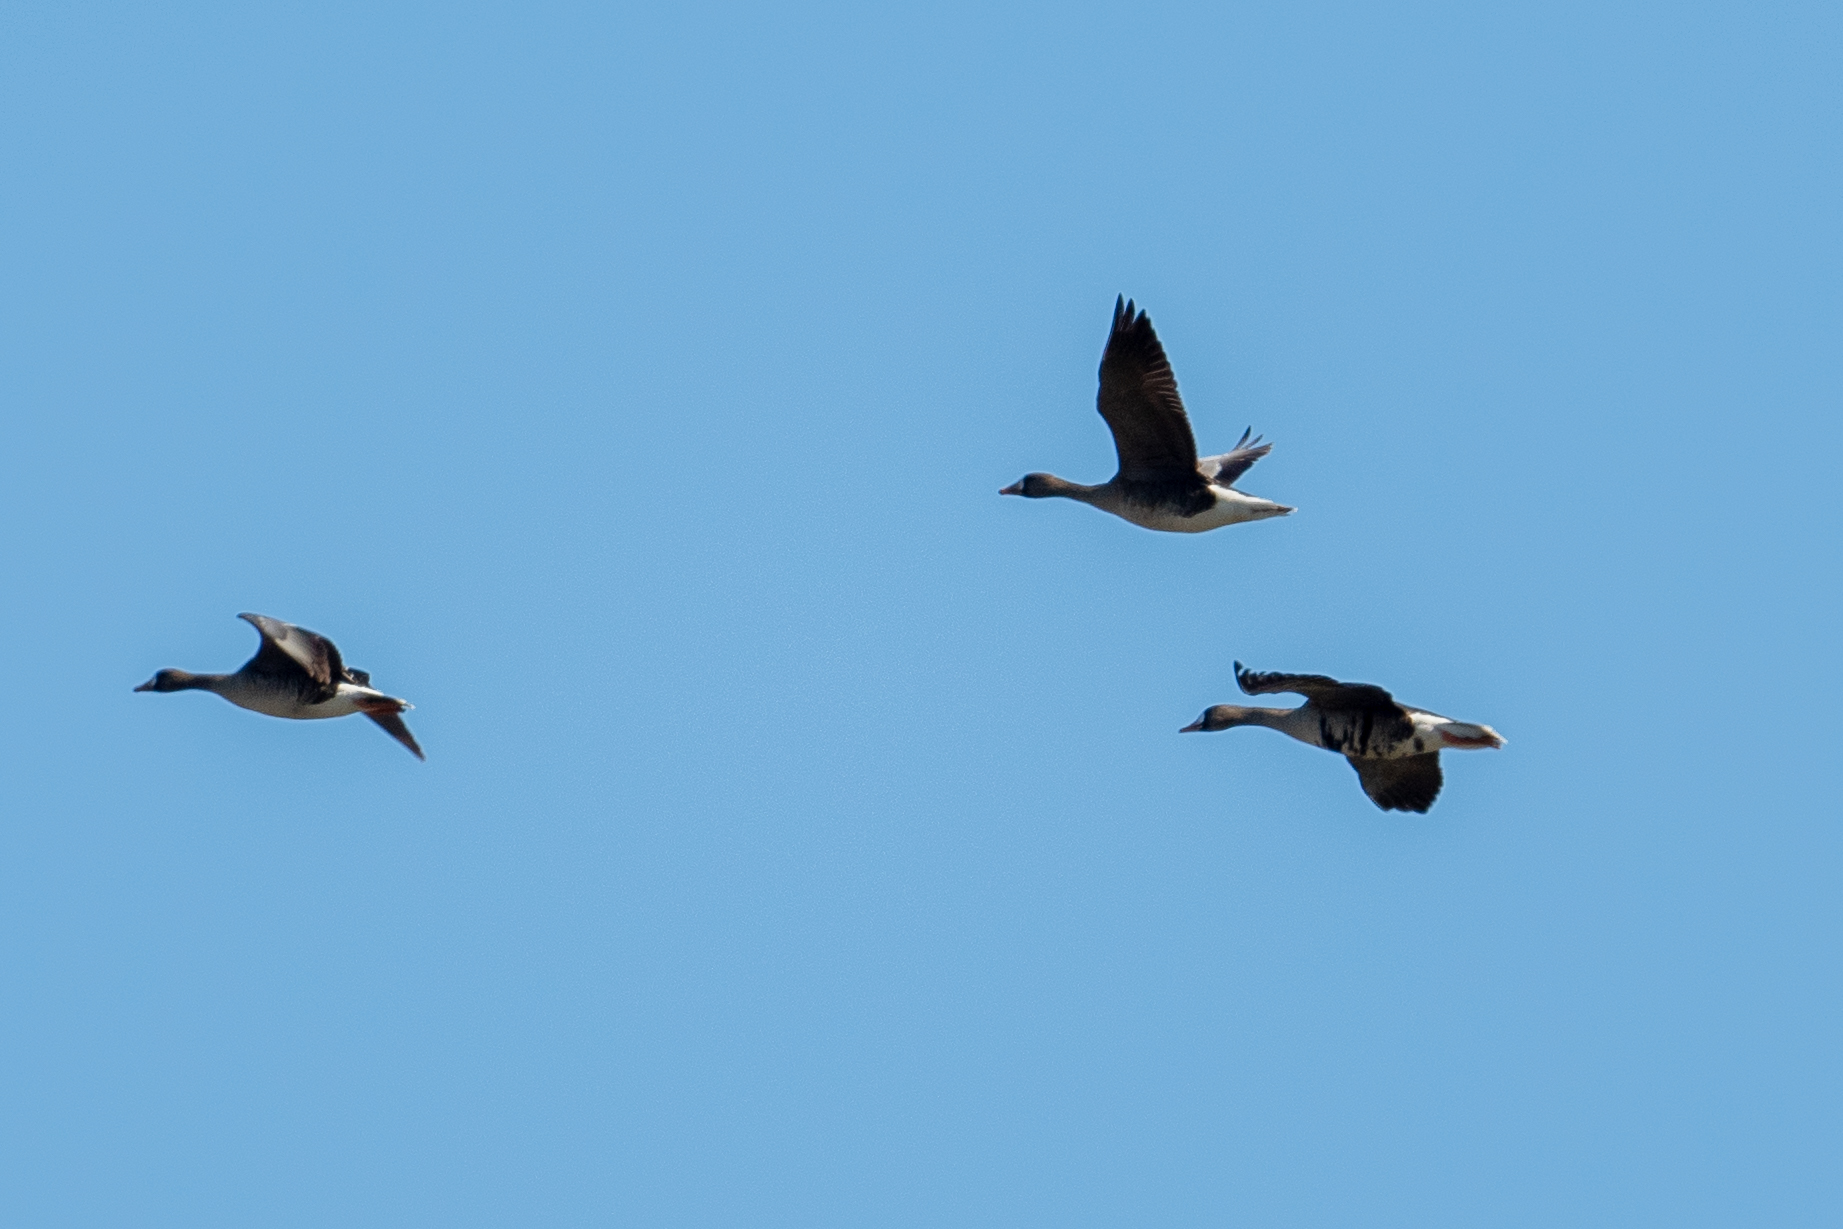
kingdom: Animalia
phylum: Chordata
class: Aves
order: Anseriformes
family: Anatidae
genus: Anser
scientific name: Anser albifrons
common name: Greater white-fronted goose
